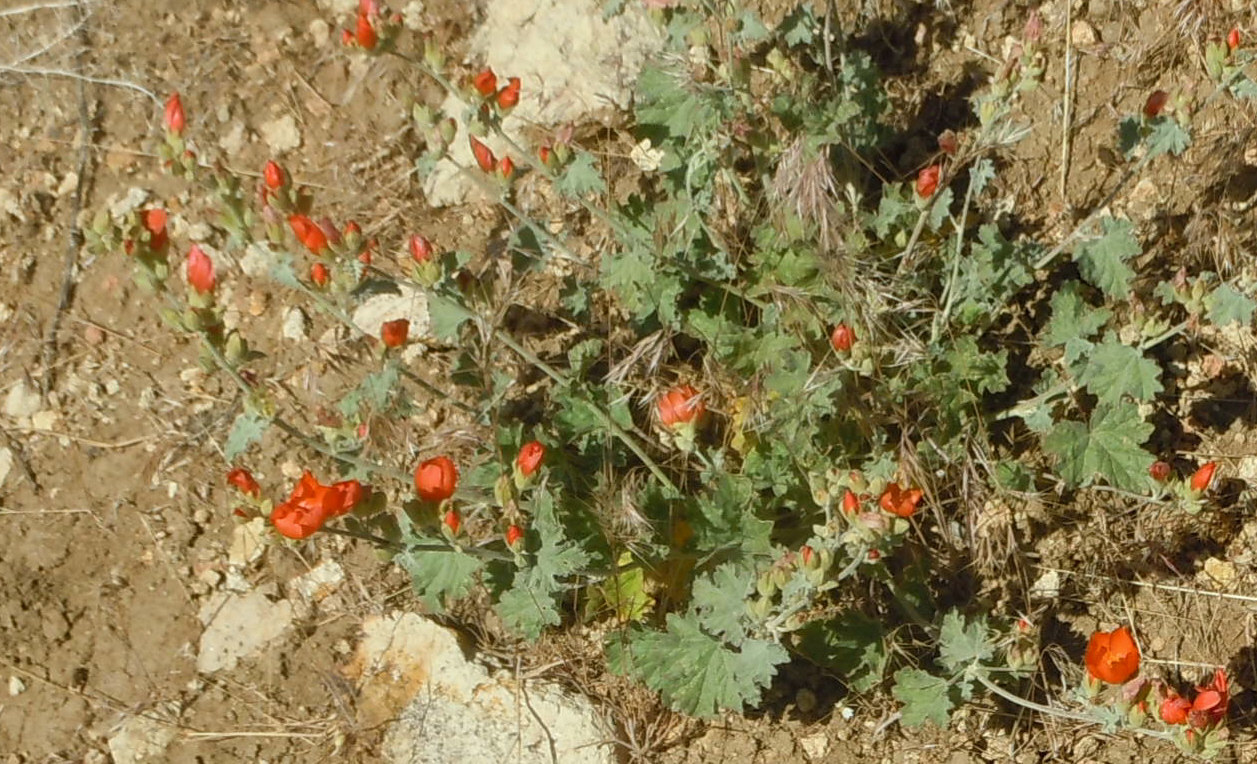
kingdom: Plantae
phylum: Tracheophyta
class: Magnoliopsida
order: Malvales
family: Malvaceae
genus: Sphaeralcea
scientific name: Sphaeralcea ambigua
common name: Apricot globe-mallow
